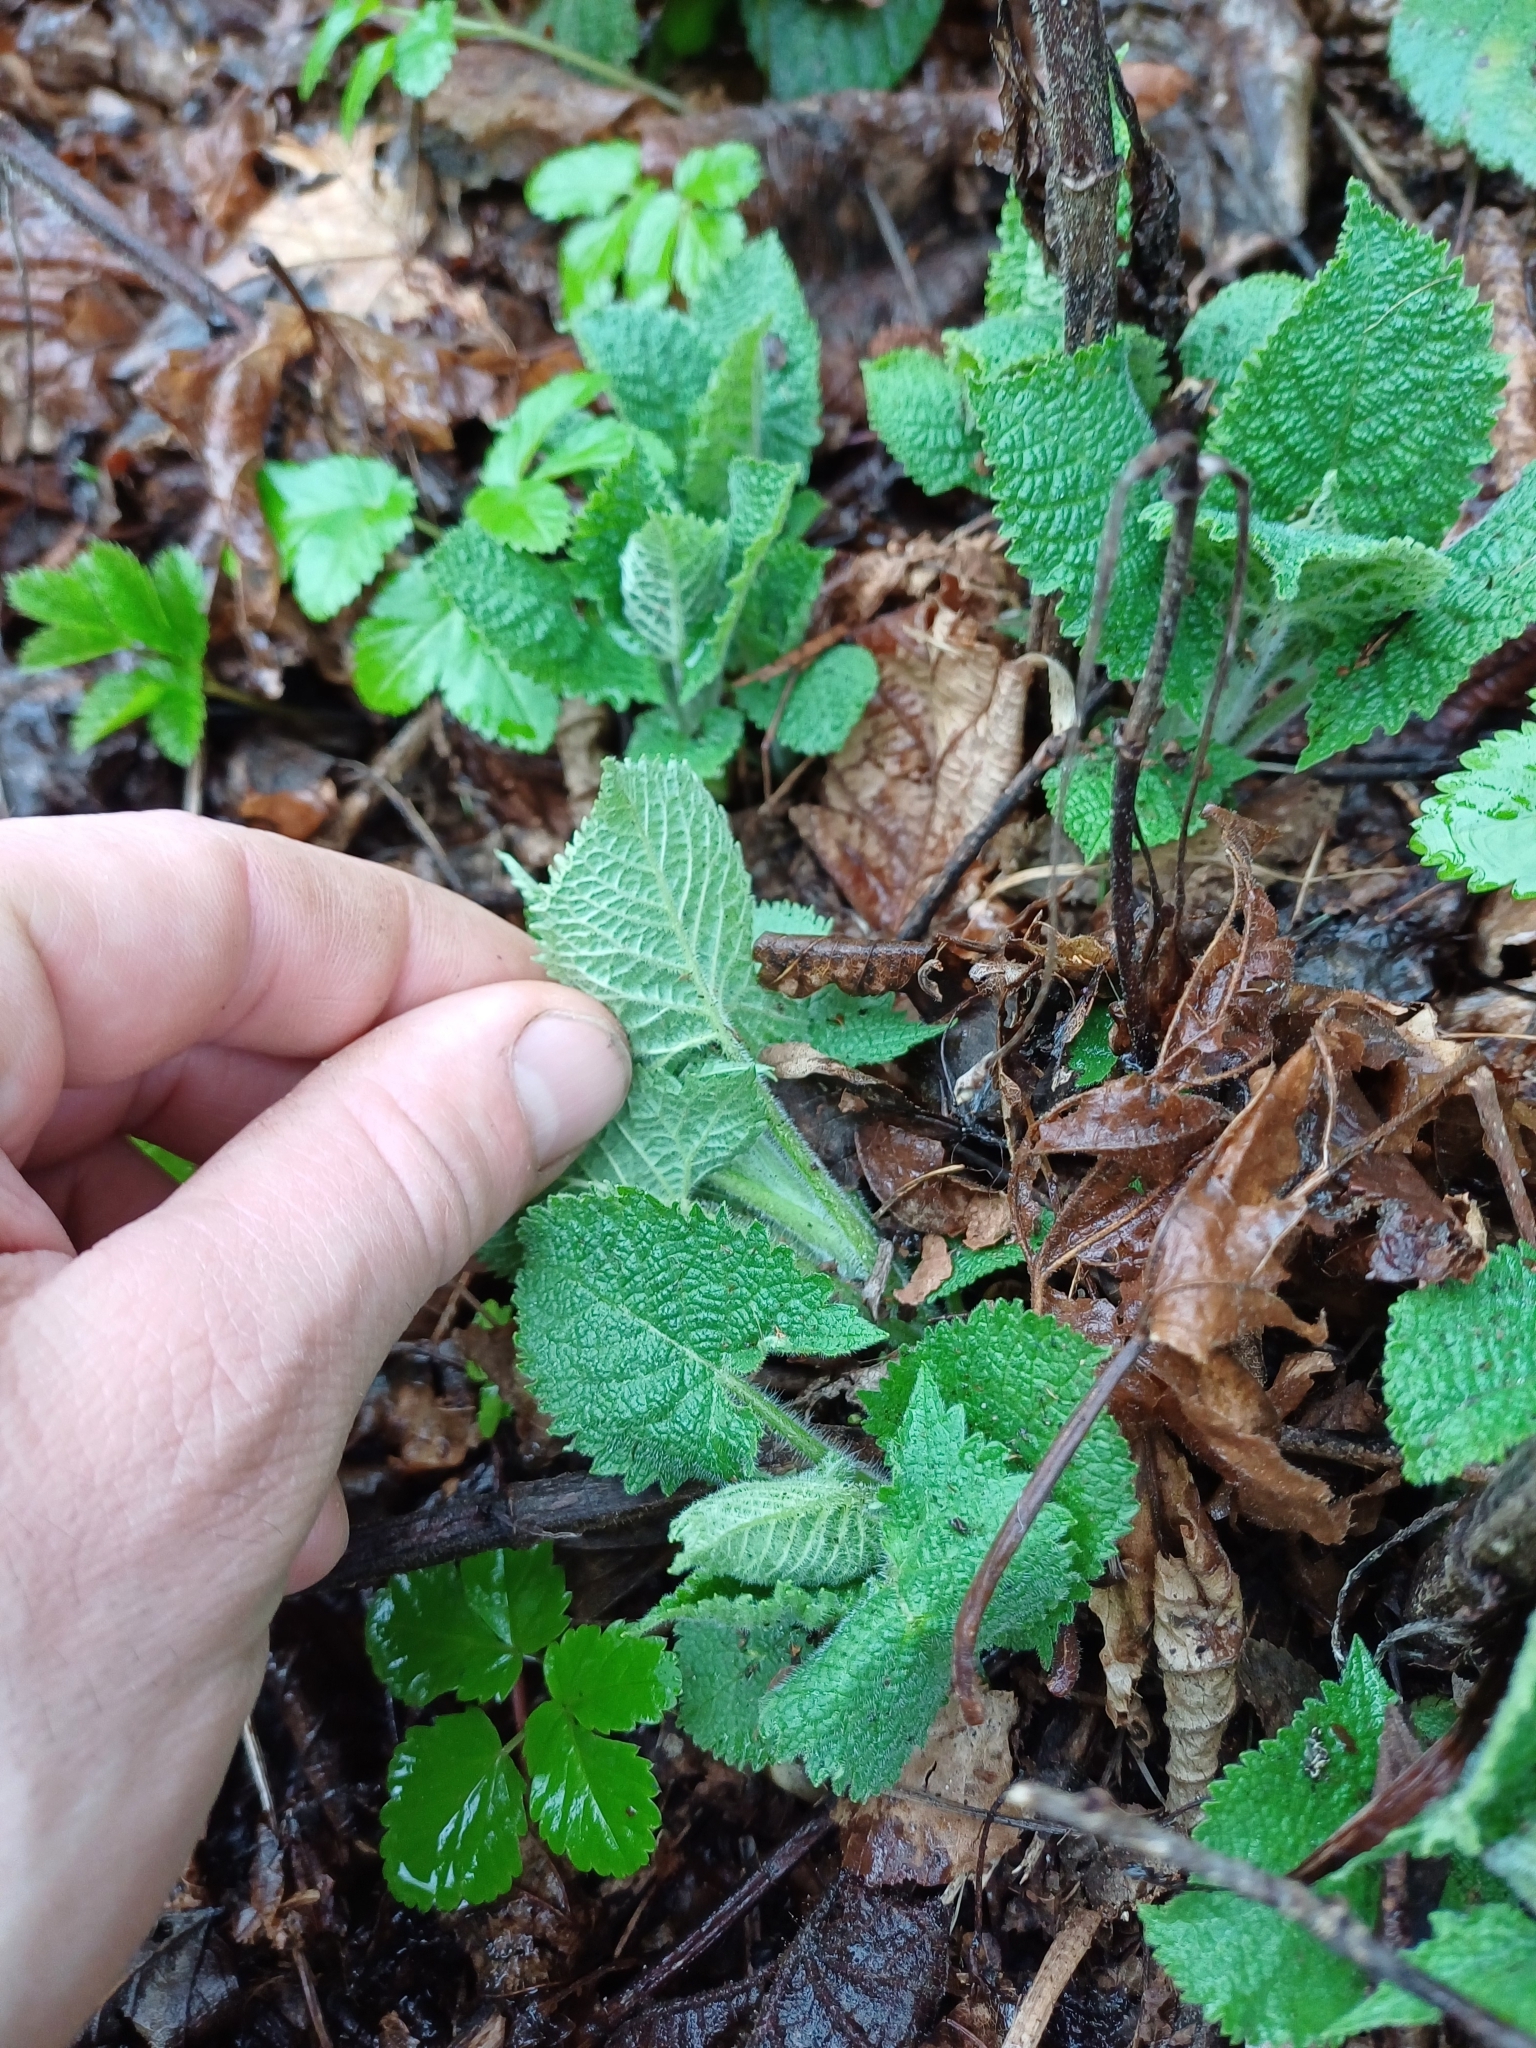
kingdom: Plantae
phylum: Tracheophyta
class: Magnoliopsida
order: Lamiales
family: Lamiaceae
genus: Salvia
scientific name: Salvia glutinosa
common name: Sticky clary
